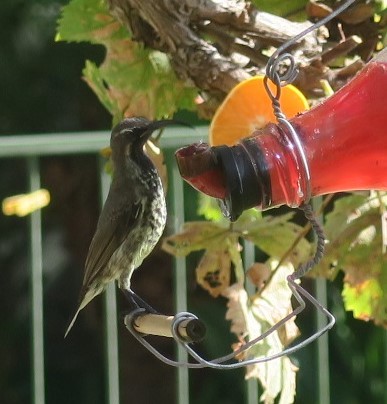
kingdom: Animalia
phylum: Chordata
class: Aves
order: Passeriformes
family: Nectariniidae
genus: Chalcomitra
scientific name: Chalcomitra amethystina
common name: Amethyst sunbird
